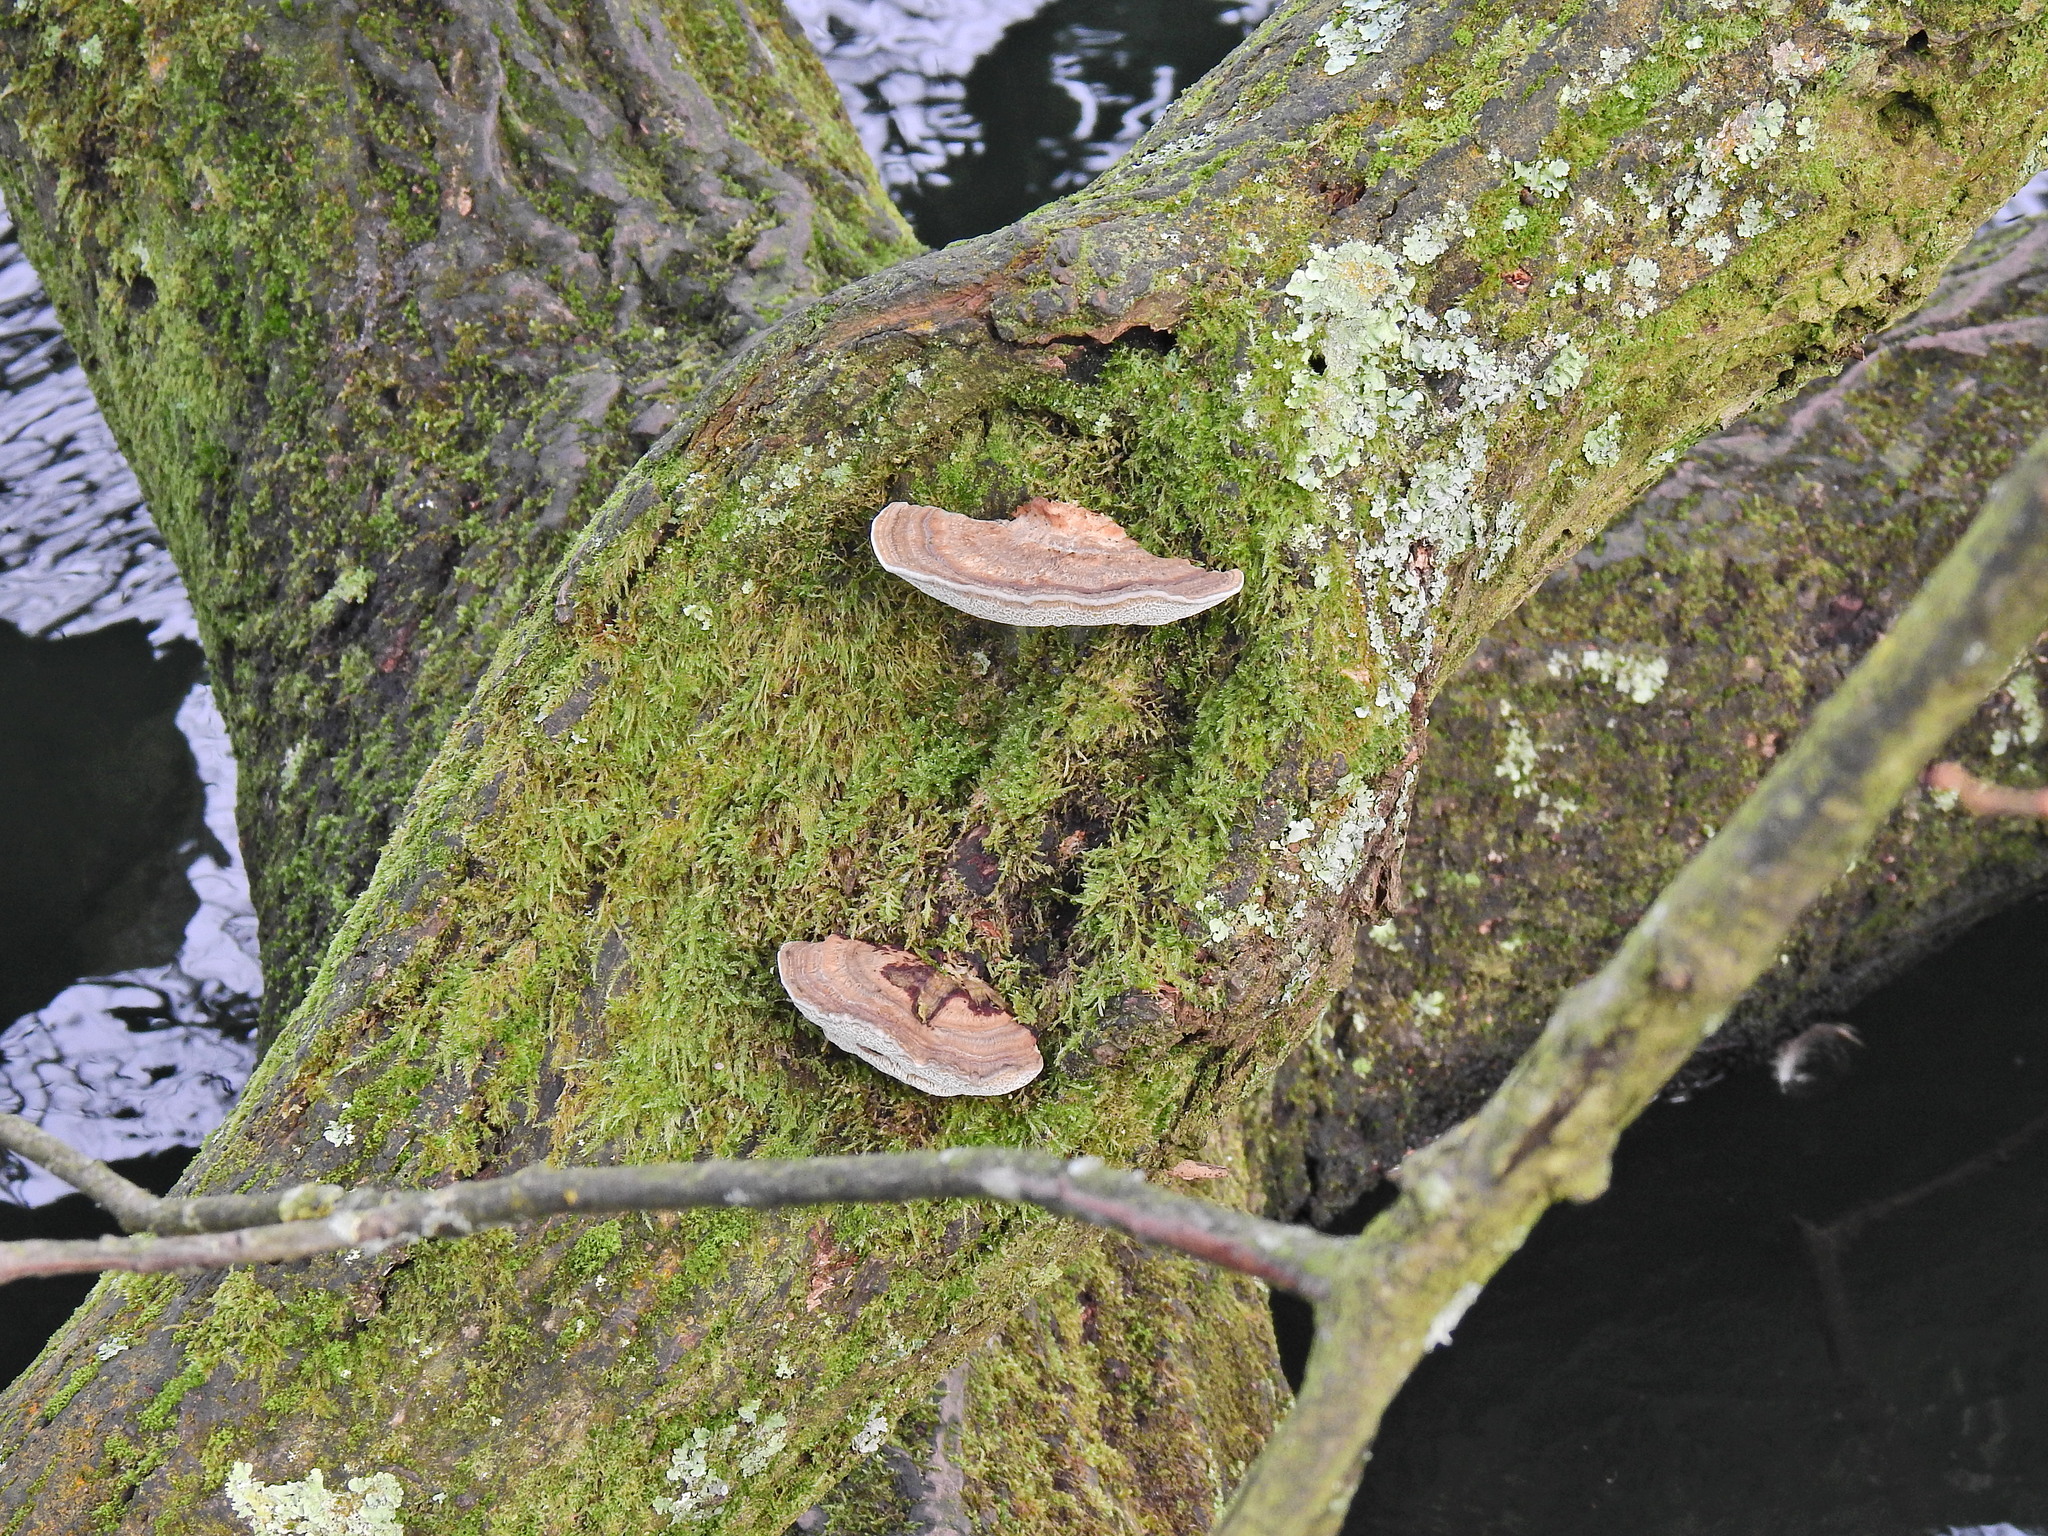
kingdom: Fungi
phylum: Basidiomycota
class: Agaricomycetes
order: Polyporales
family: Polyporaceae
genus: Daedaleopsis
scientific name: Daedaleopsis confragosa
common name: Blushing bracket
